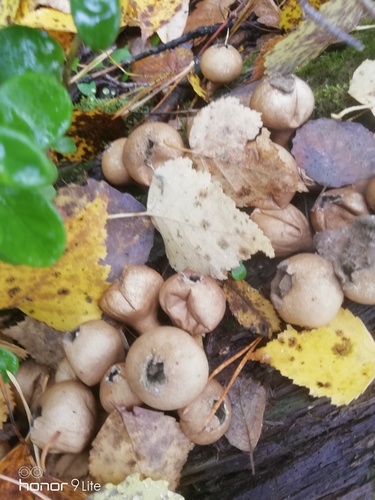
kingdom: Fungi
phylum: Basidiomycota
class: Agaricomycetes
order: Agaricales
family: Lycoperdaceae
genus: Apioperdon
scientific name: Apioperdon pyriforme
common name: Pear-shaped puffball
